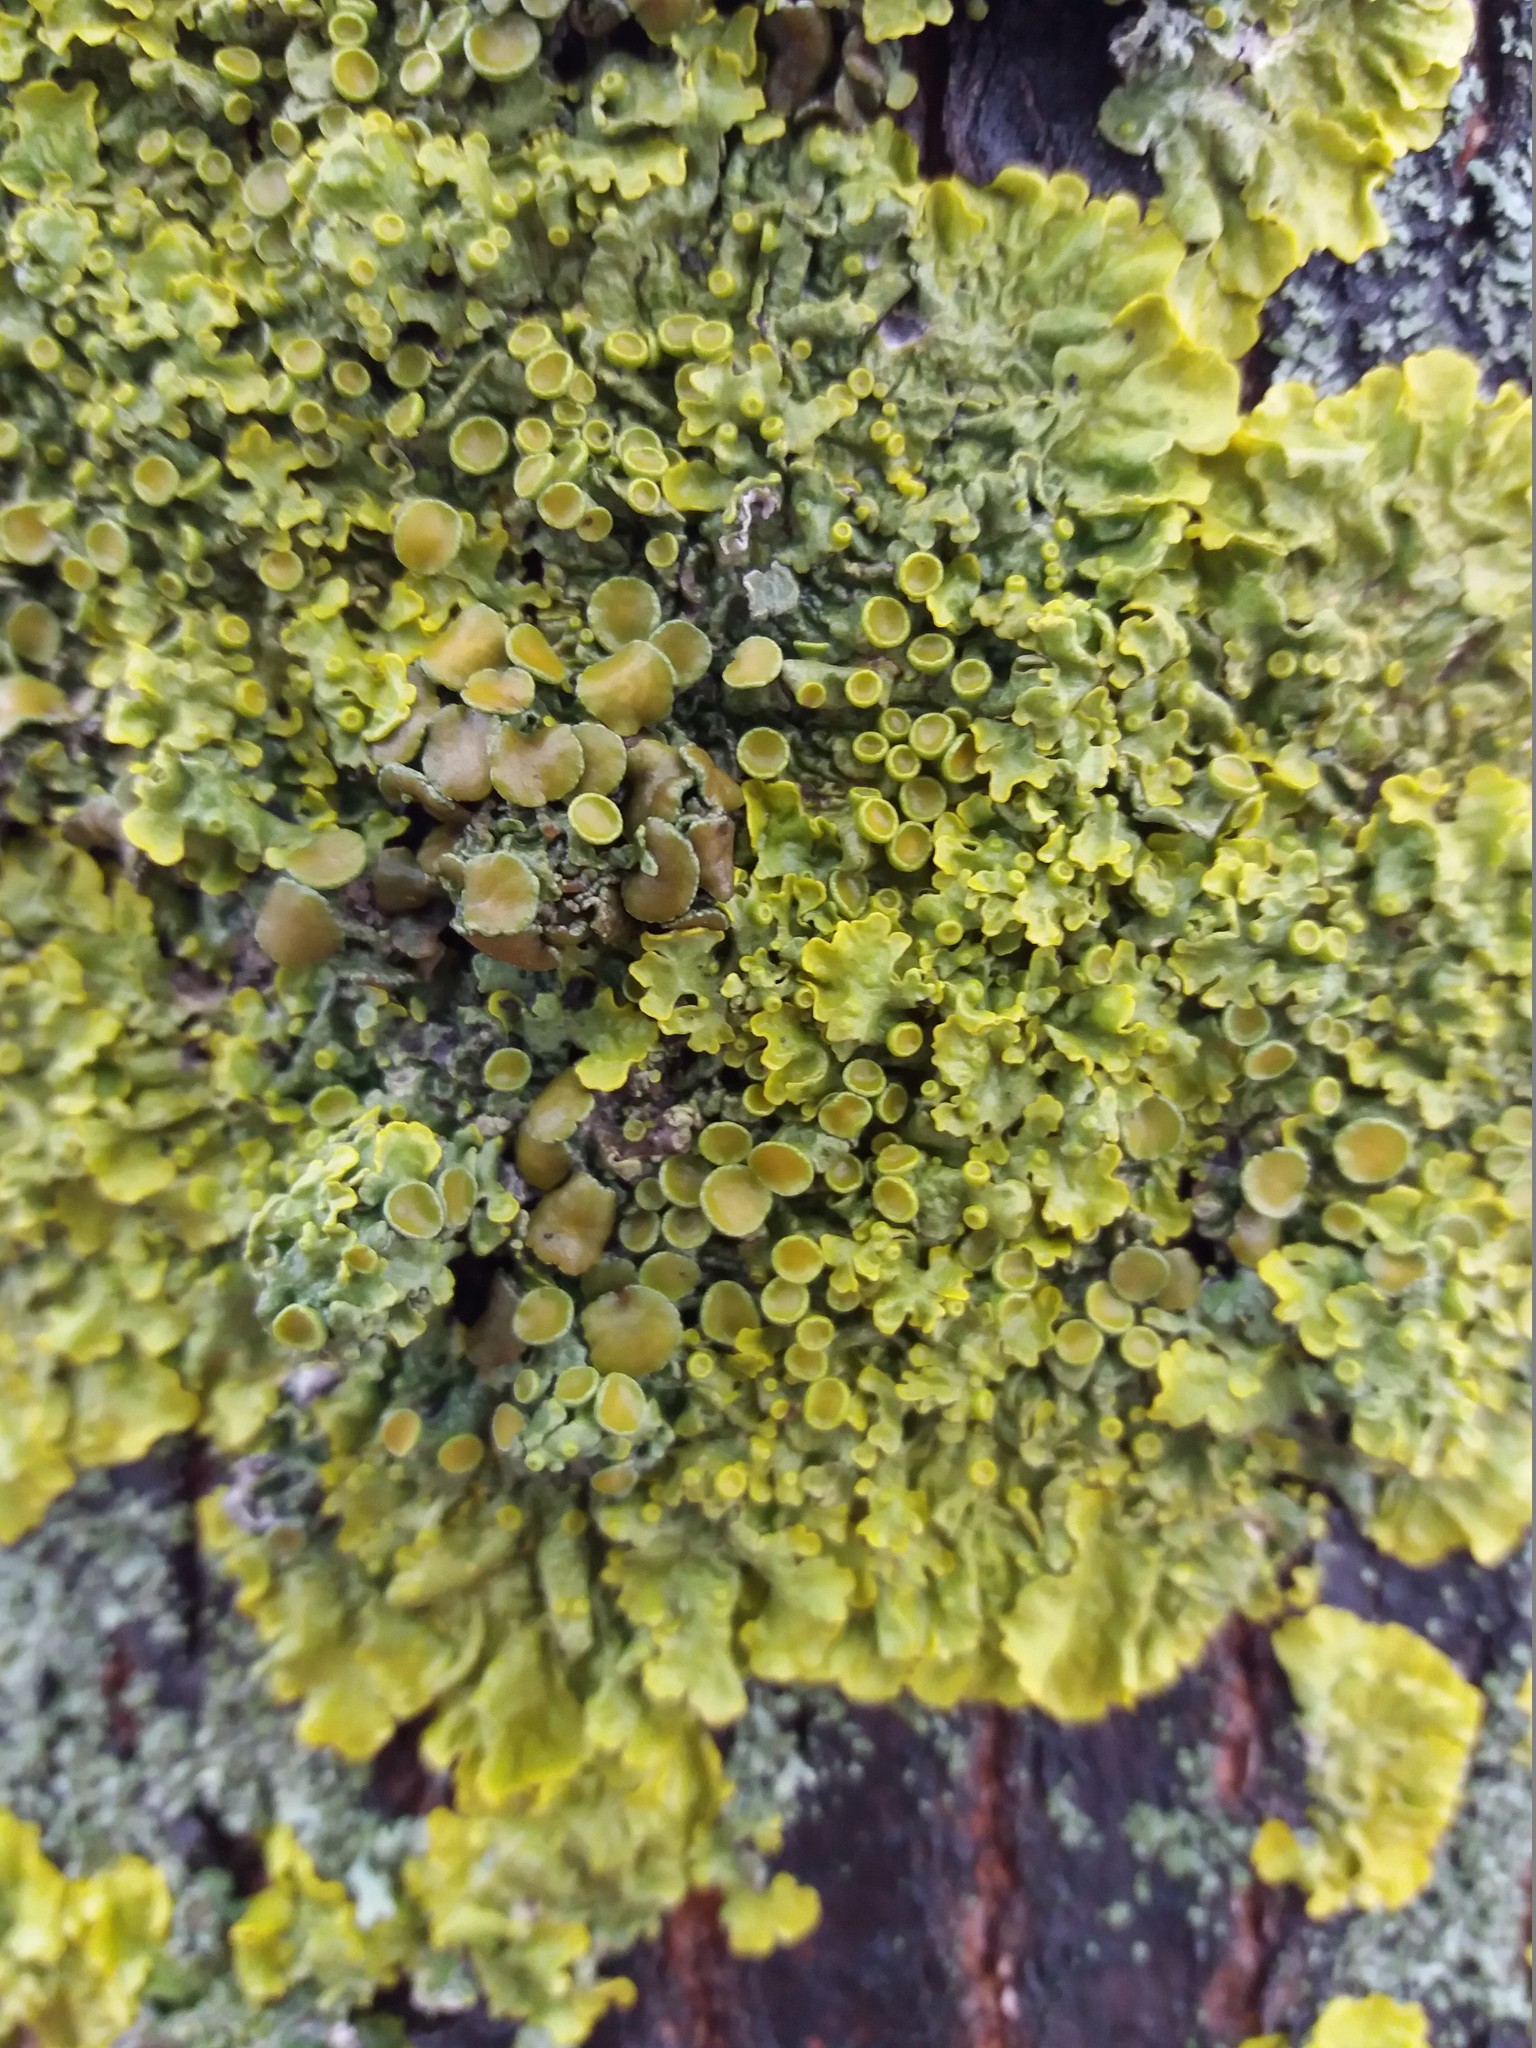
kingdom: Fungi
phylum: Ascomycota
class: Lecanoromycetes
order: Teloschistales
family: Teloschistaceae
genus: Xanthoria
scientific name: Xanthoria parietina
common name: Common orange lichen
